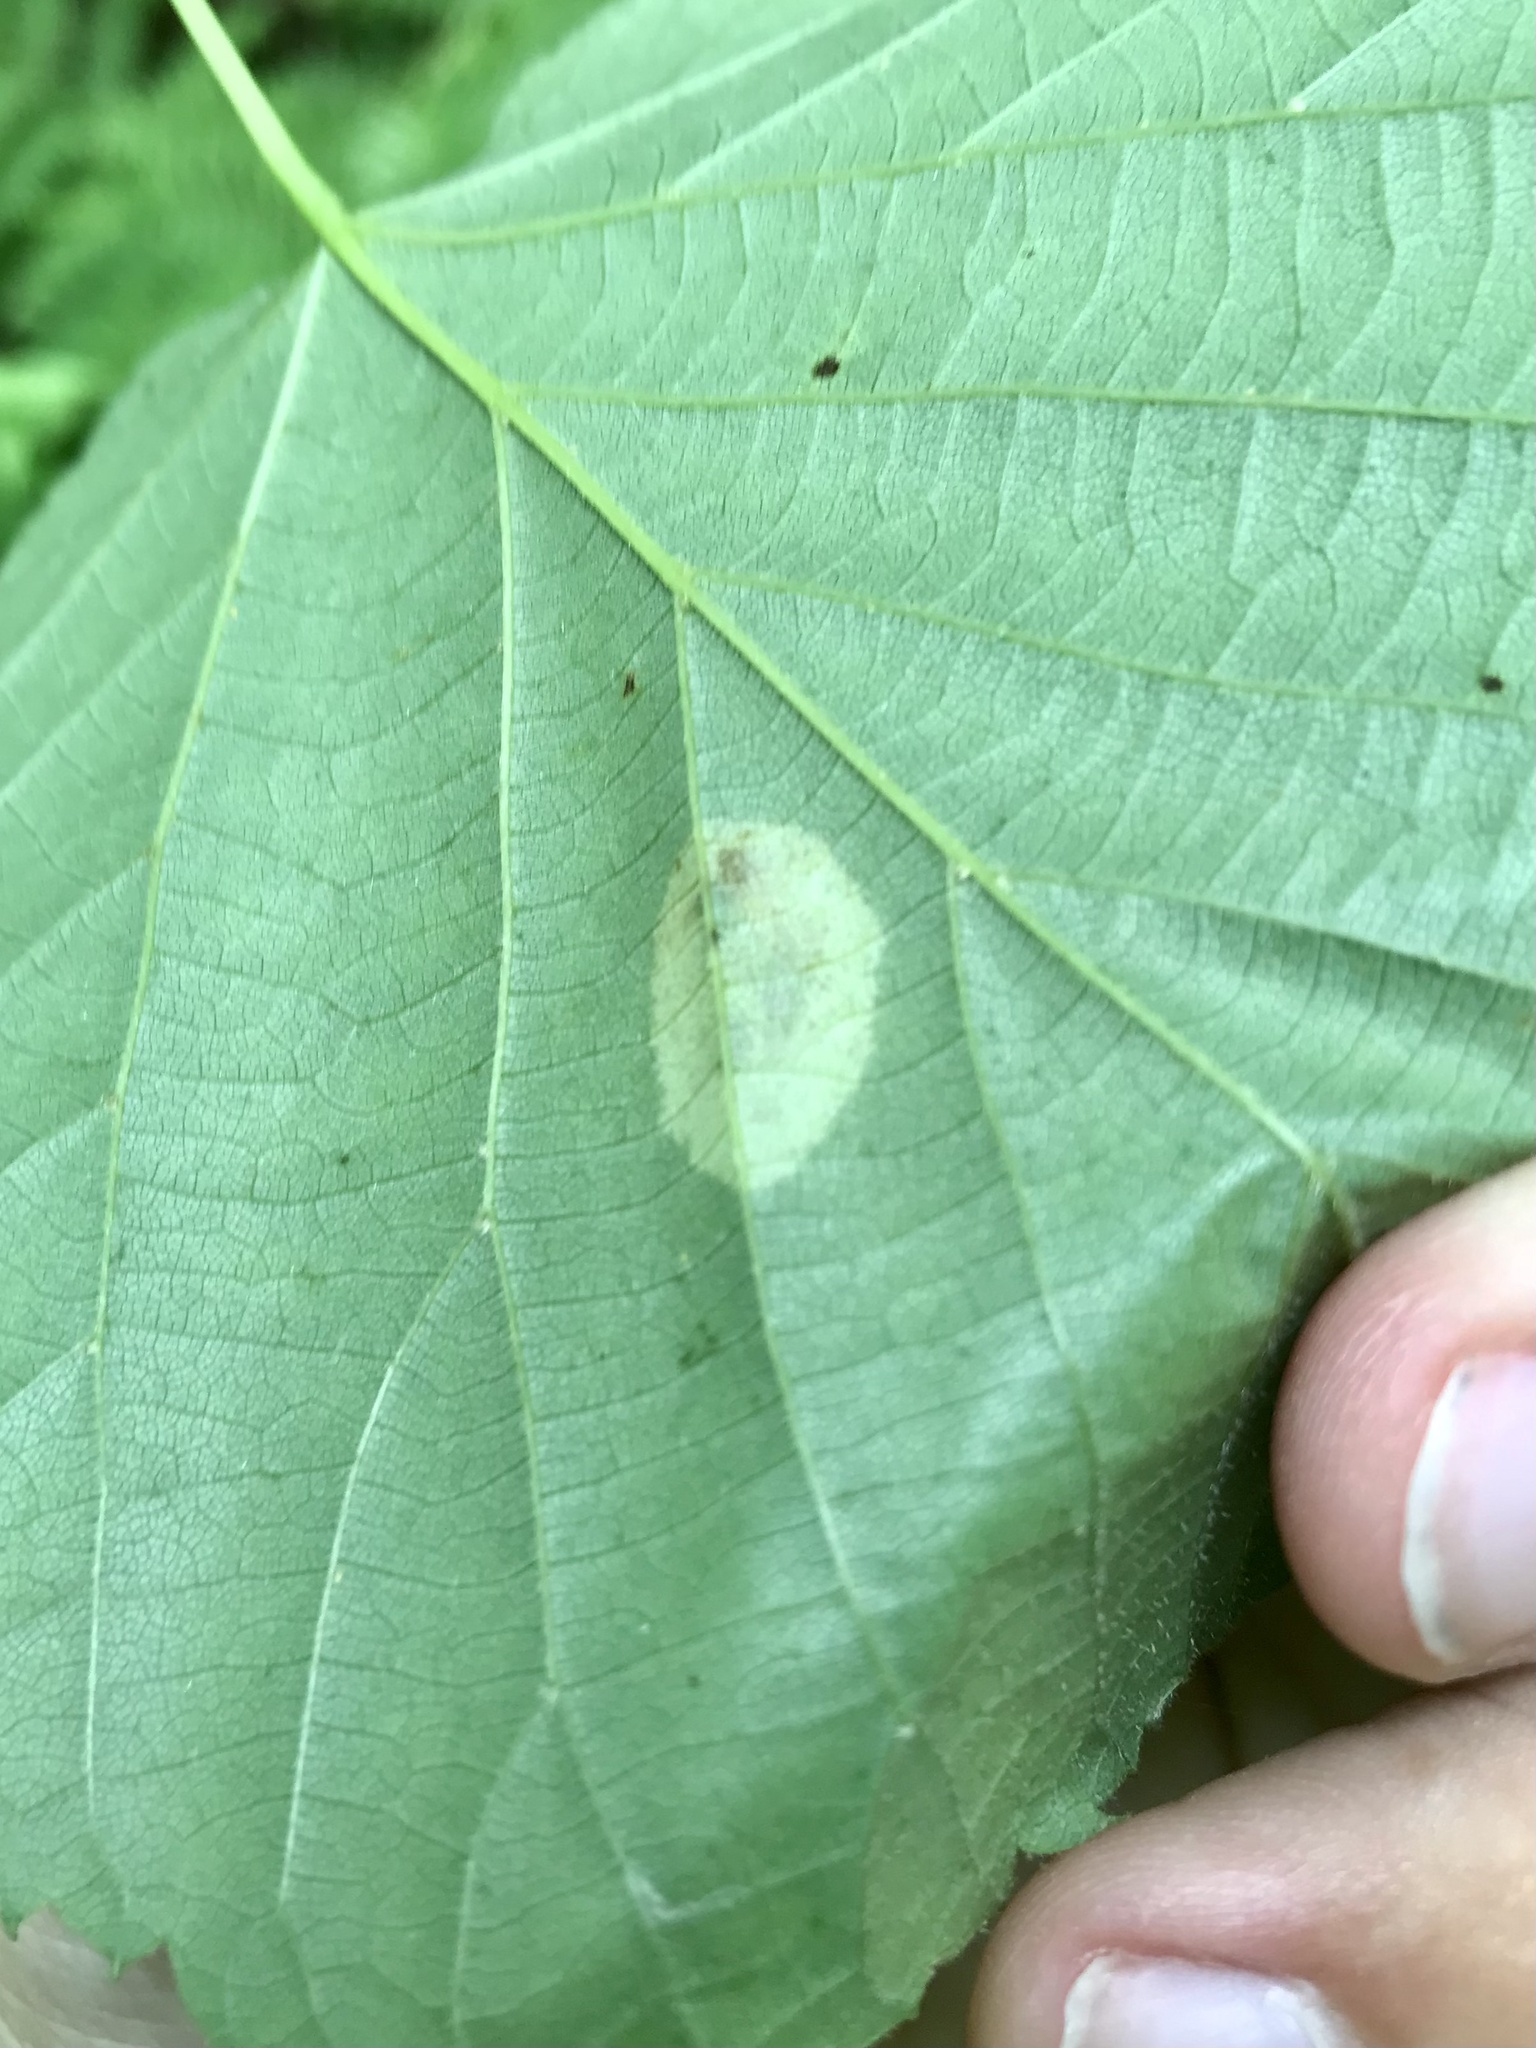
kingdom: Animalia
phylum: Arthropoda
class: Insecta
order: Lepidoptera
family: Gracillariidae
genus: Phyllonorycter
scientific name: Phyllonorycter tiliacella
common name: Basswood round-blotch miner moth
